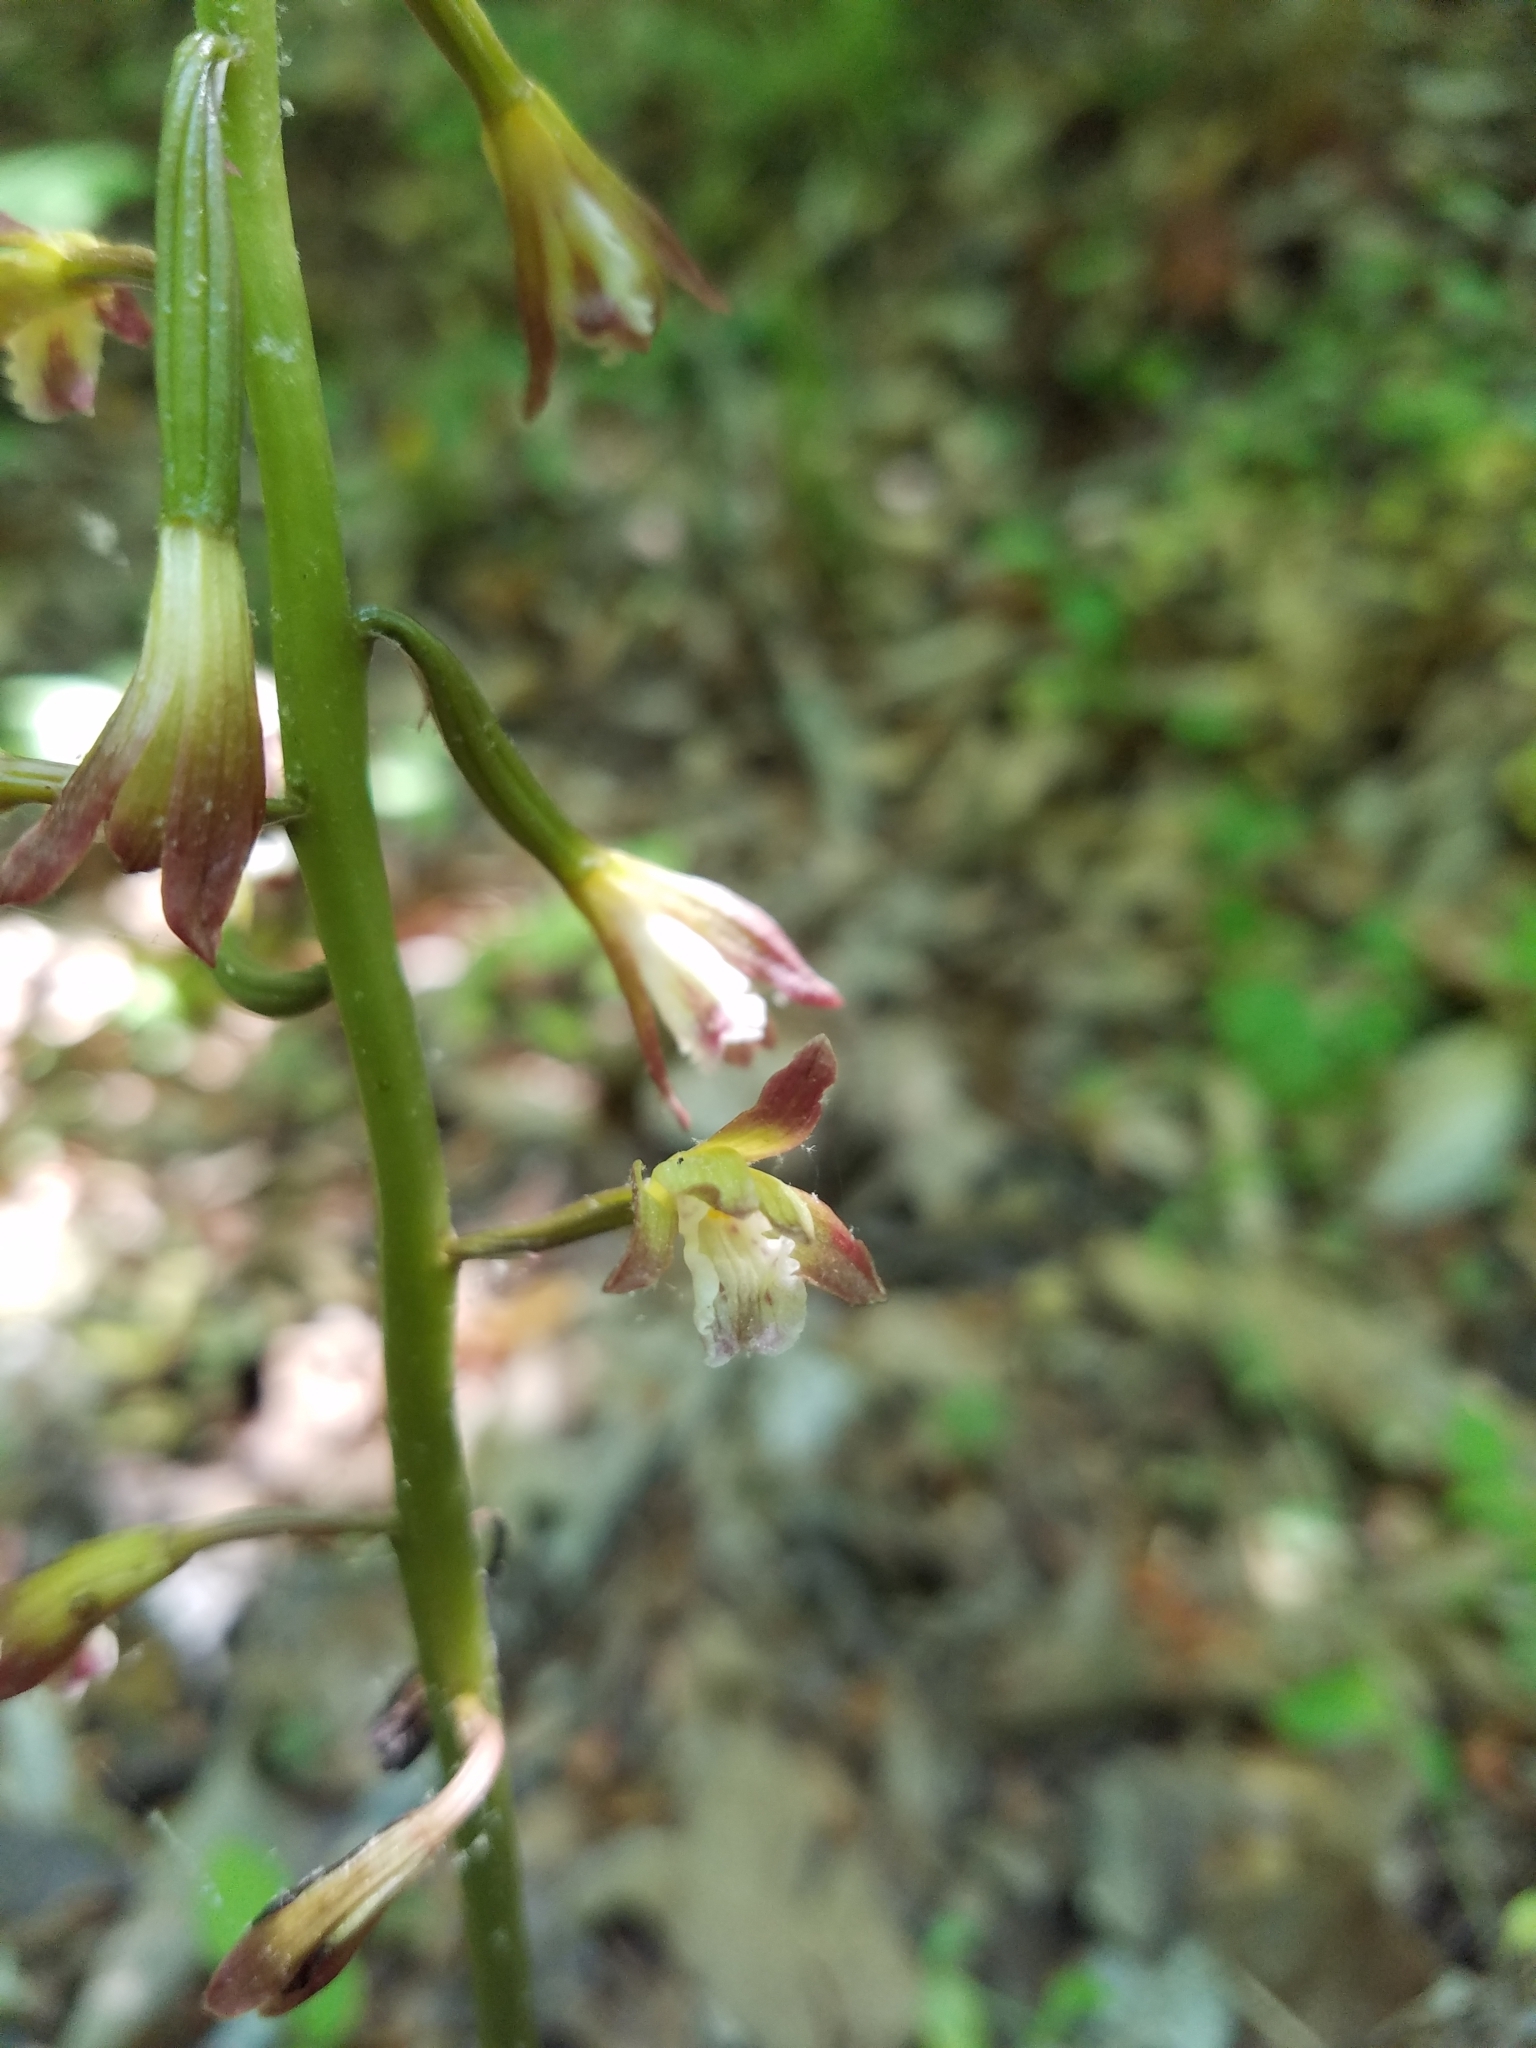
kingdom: Plantae
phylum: Tracheophyta
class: Liliopsida
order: Asparagales
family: Orchidaceae
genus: Aplectrum
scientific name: Aplectrum hyemale
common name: Adam-and-eve
